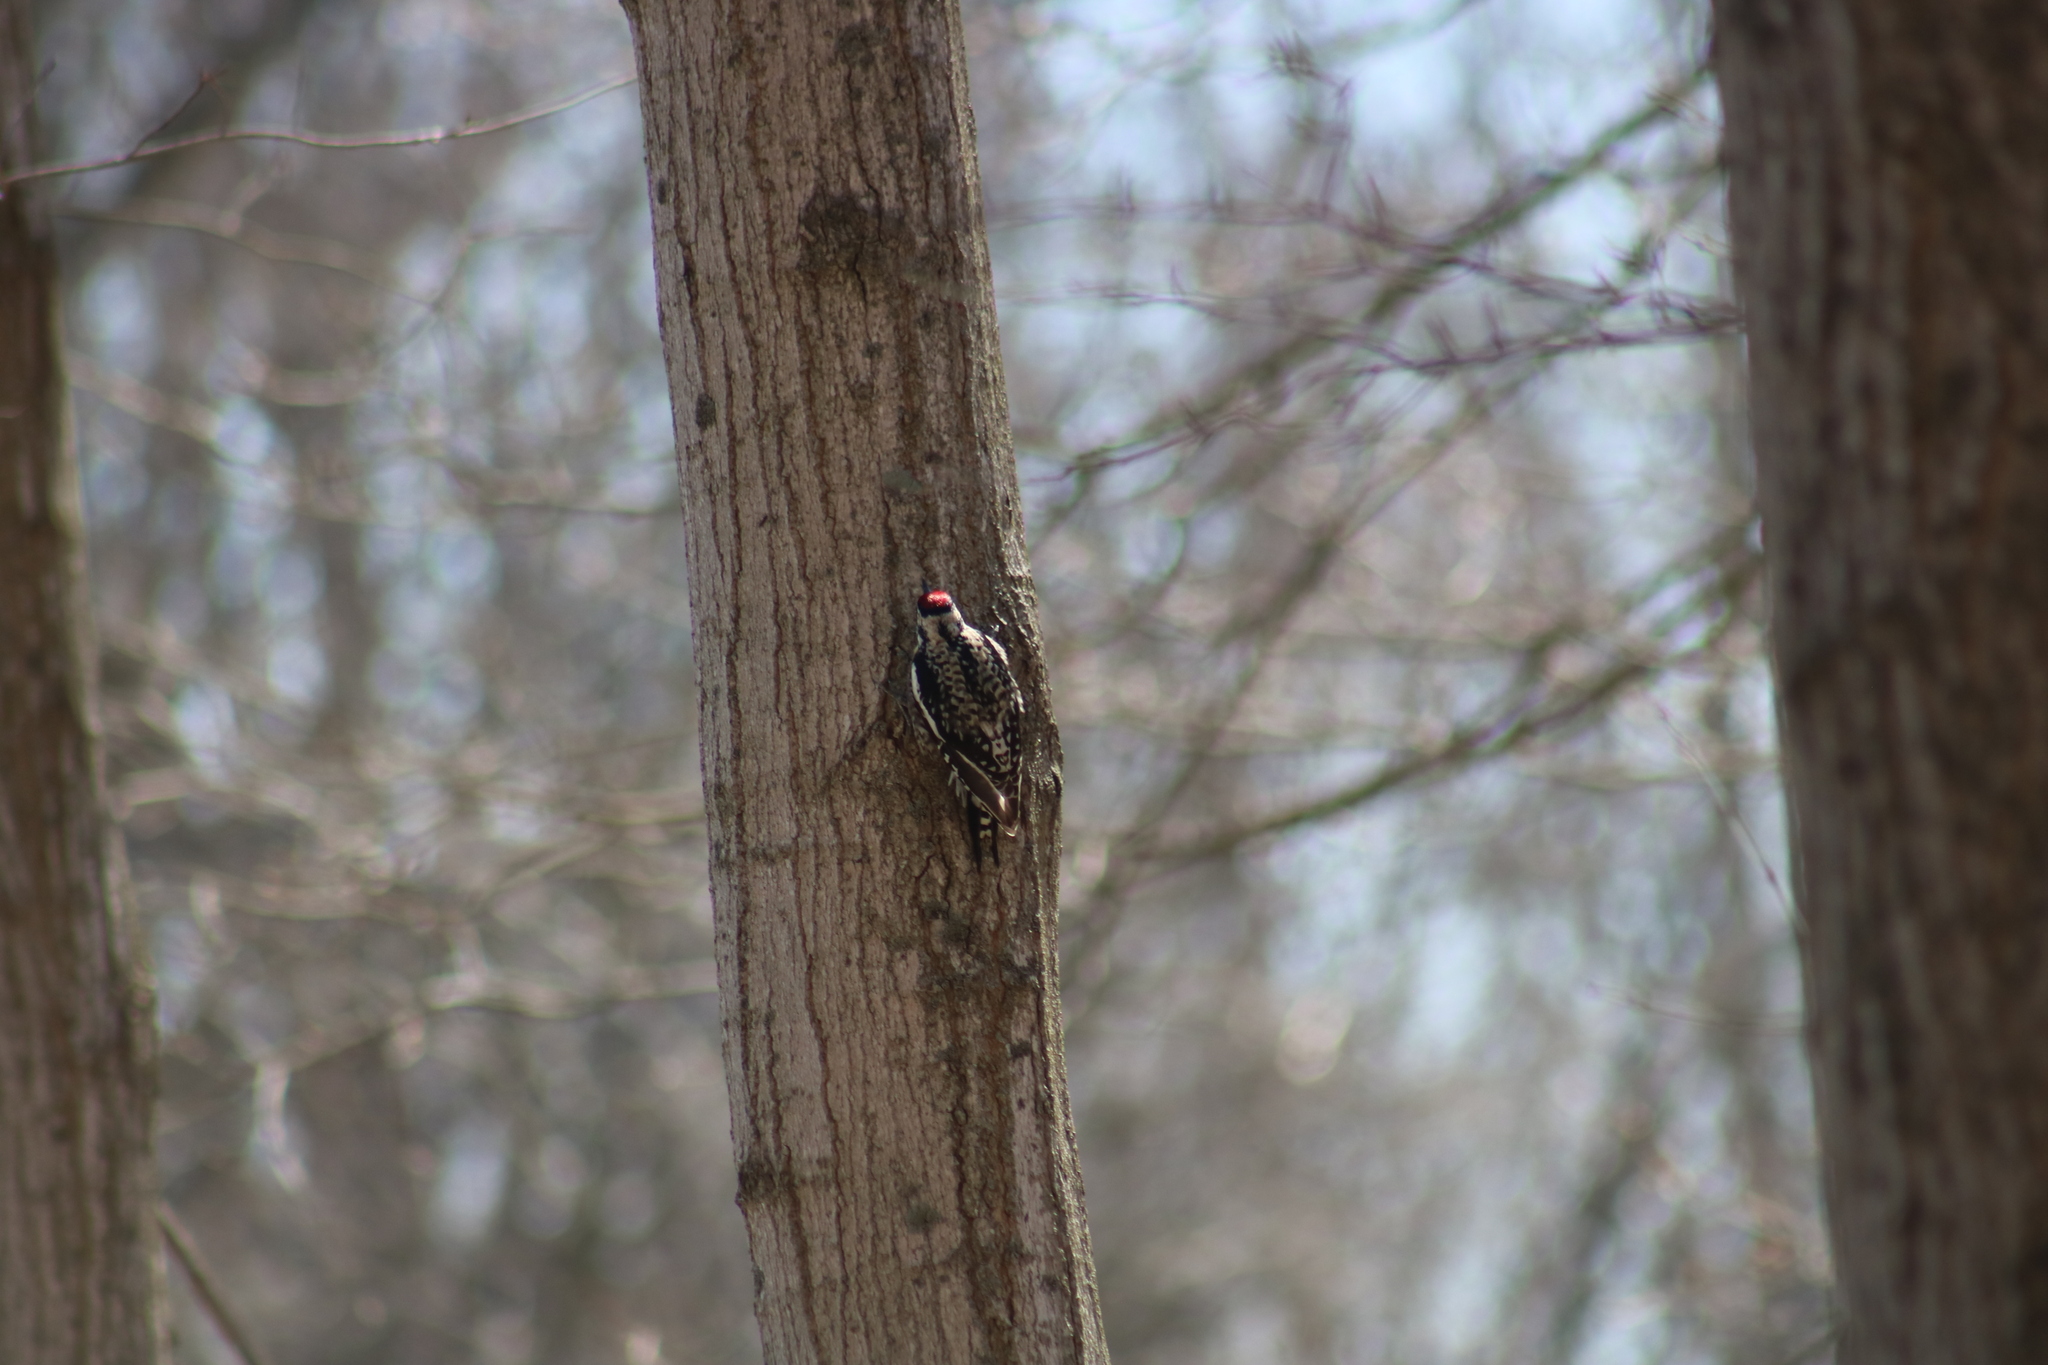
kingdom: Animalia
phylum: Chordata
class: Aves
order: Piciformes
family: Picidae
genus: Sphyrapicus
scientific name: Sphyrapicus varius
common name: Yellow-bellied sapsucker
